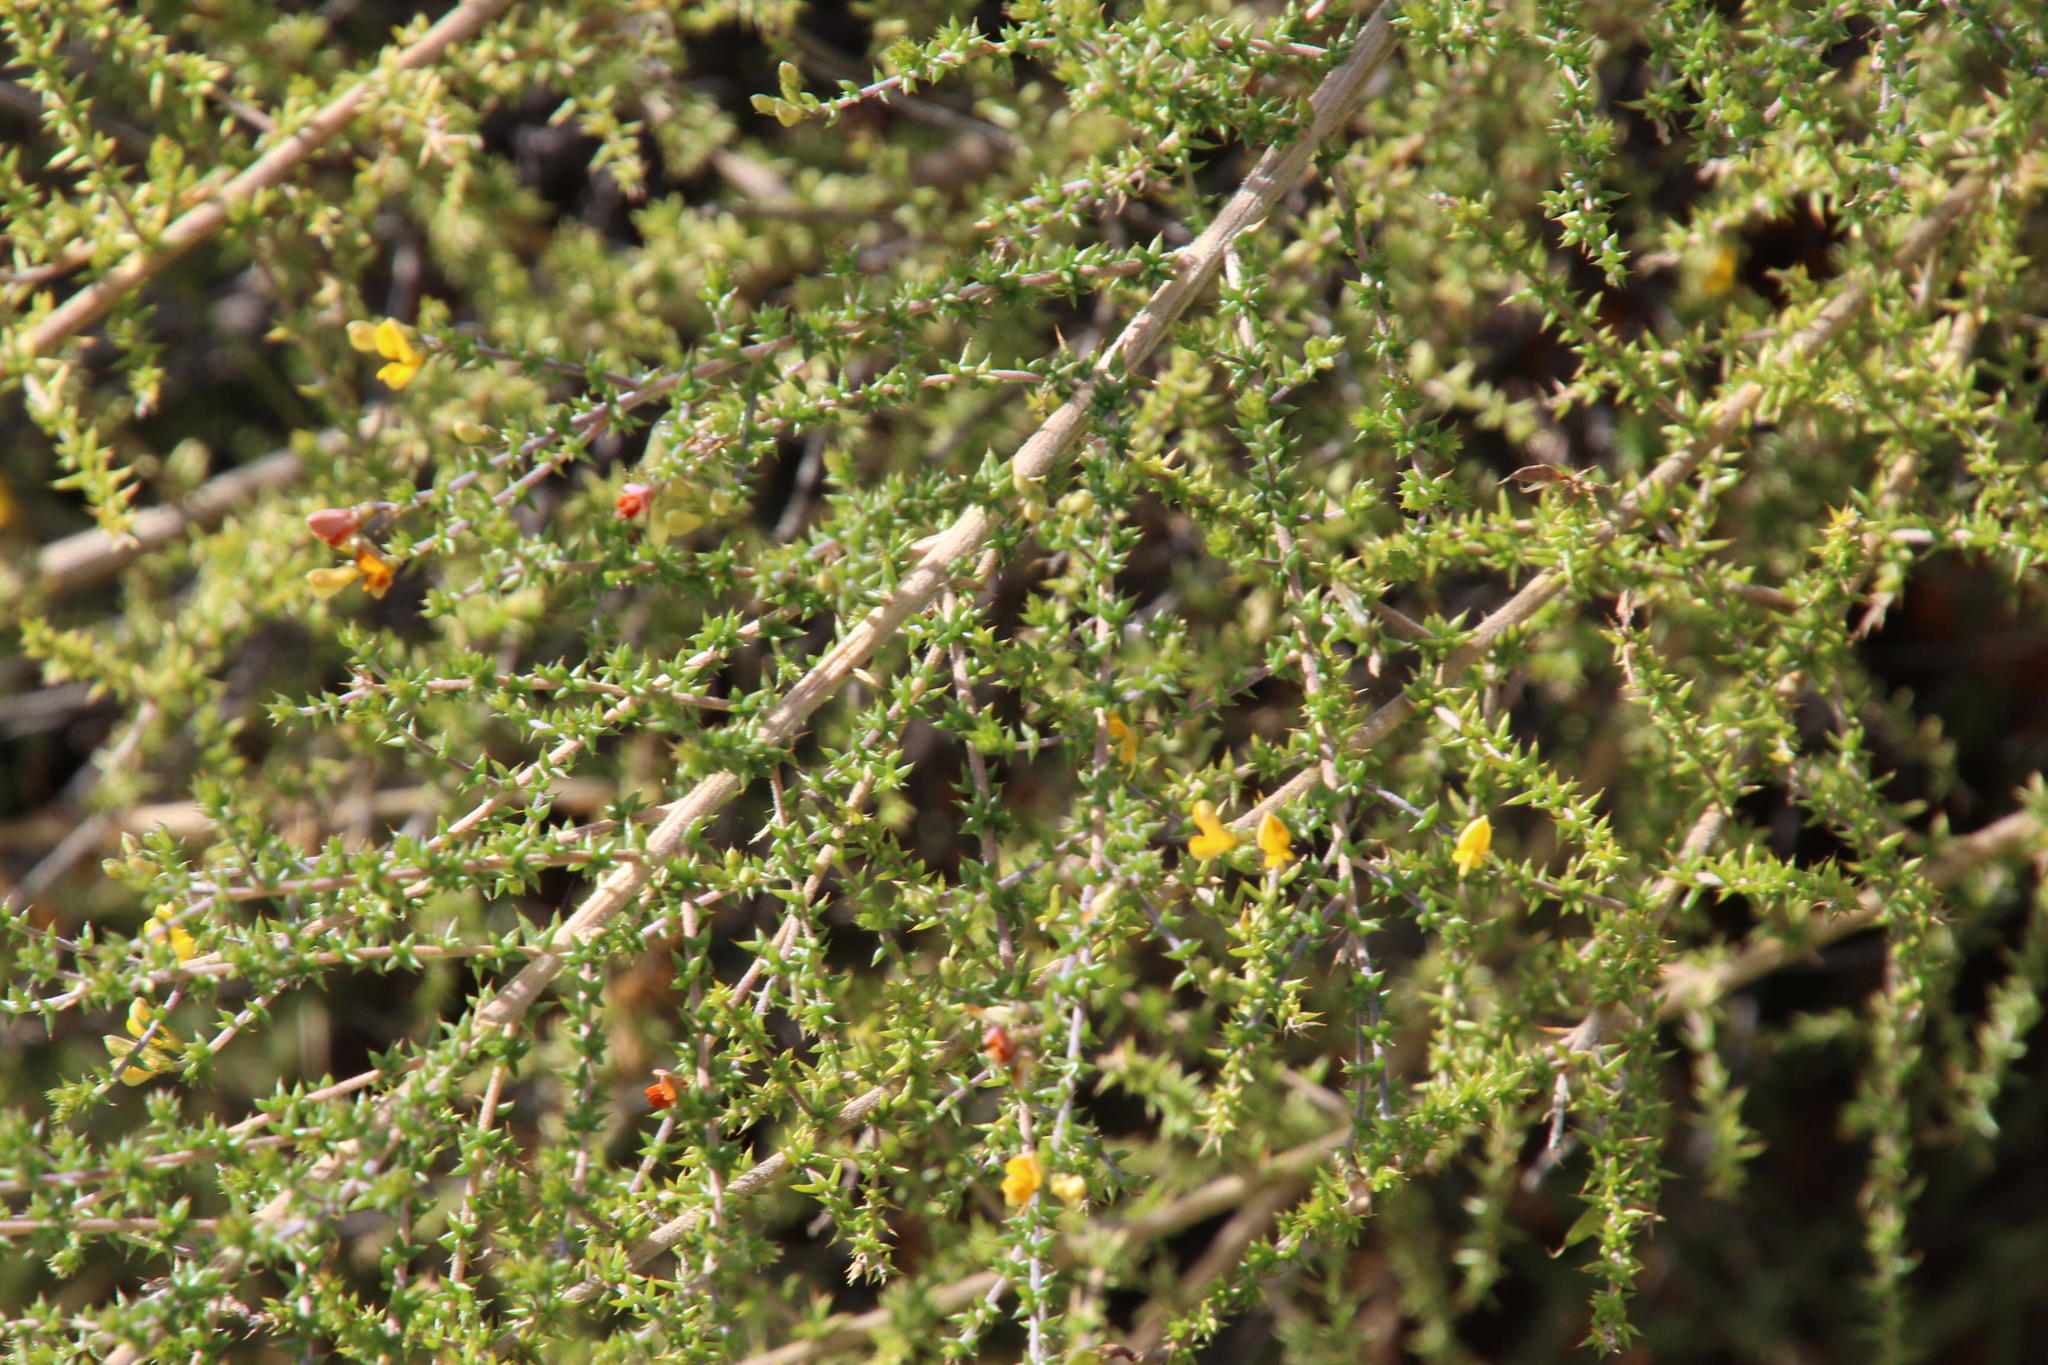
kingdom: Plantae
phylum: Tracheophyta
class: Magnoliopsida
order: Fabales
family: Fabaceae
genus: Aspalathus
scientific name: Aspalathus divaricata
